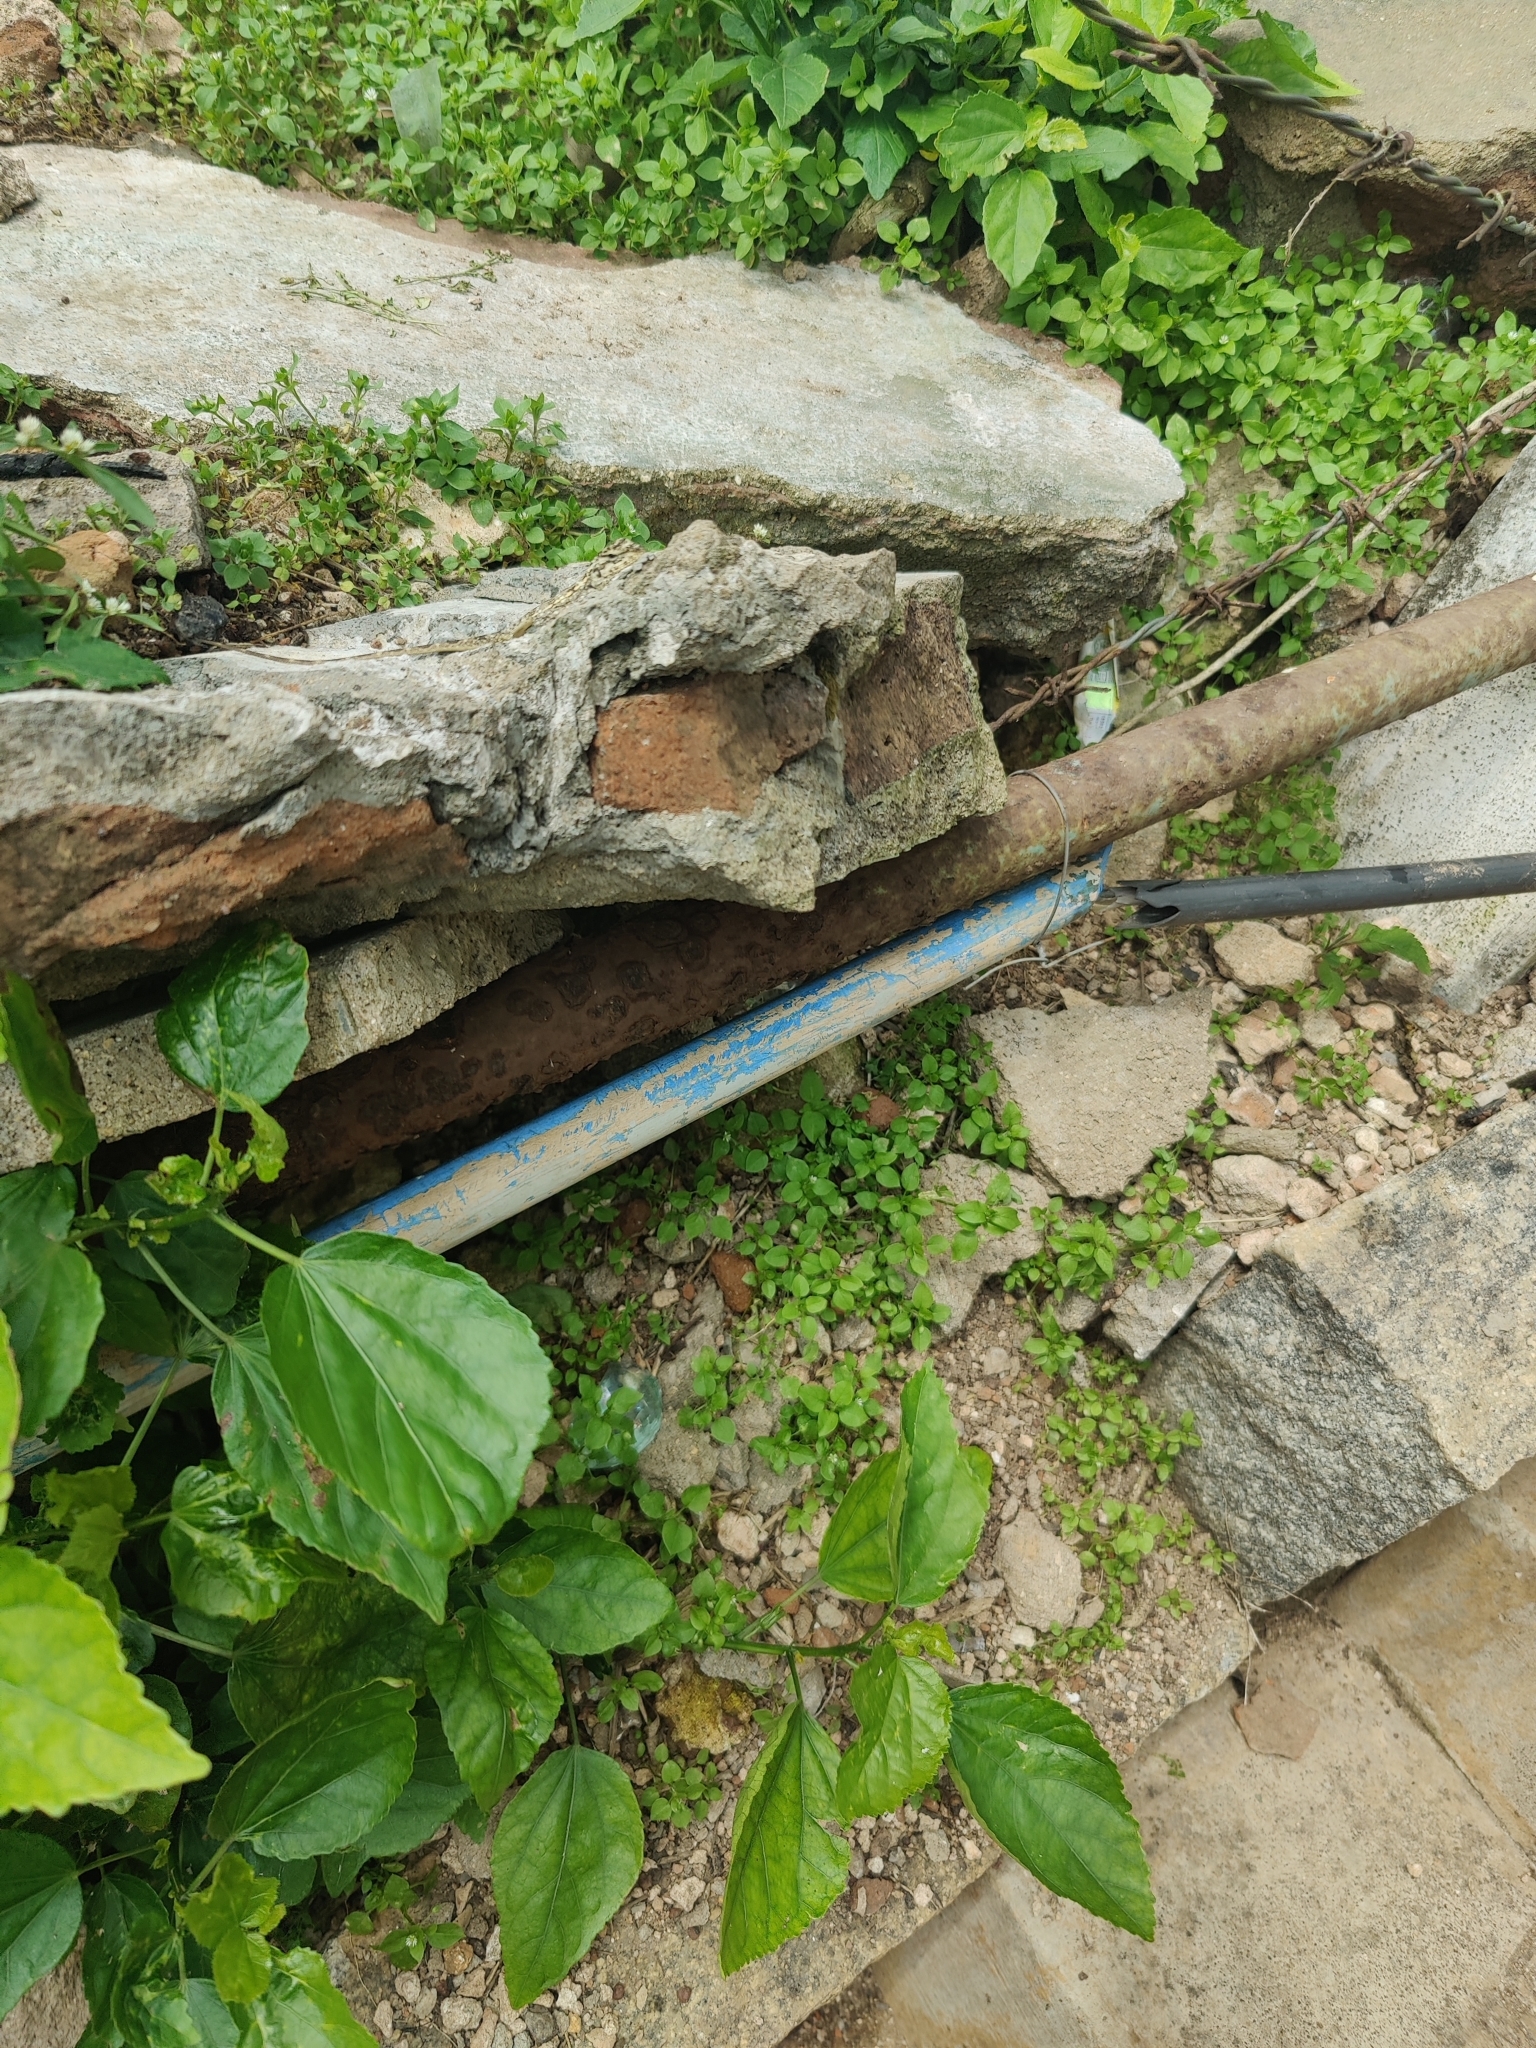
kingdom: Animalia
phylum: Chordata
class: Squamata
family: Agamidae
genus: Psammophilus
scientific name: Psammophilus dorsalis
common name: South indian rock agama
